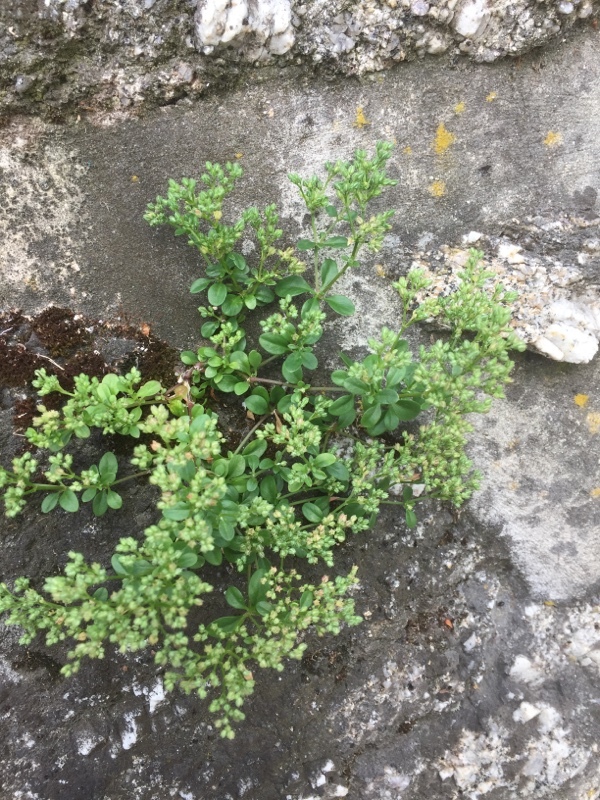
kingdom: Plantae
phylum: Tracheophyta
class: Magnoliopsida
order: Caryophyllales
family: Caryophyllaceae
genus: Polycarpon
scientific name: Polycarpon tetraphyllum
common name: Four-leaved all-seed
